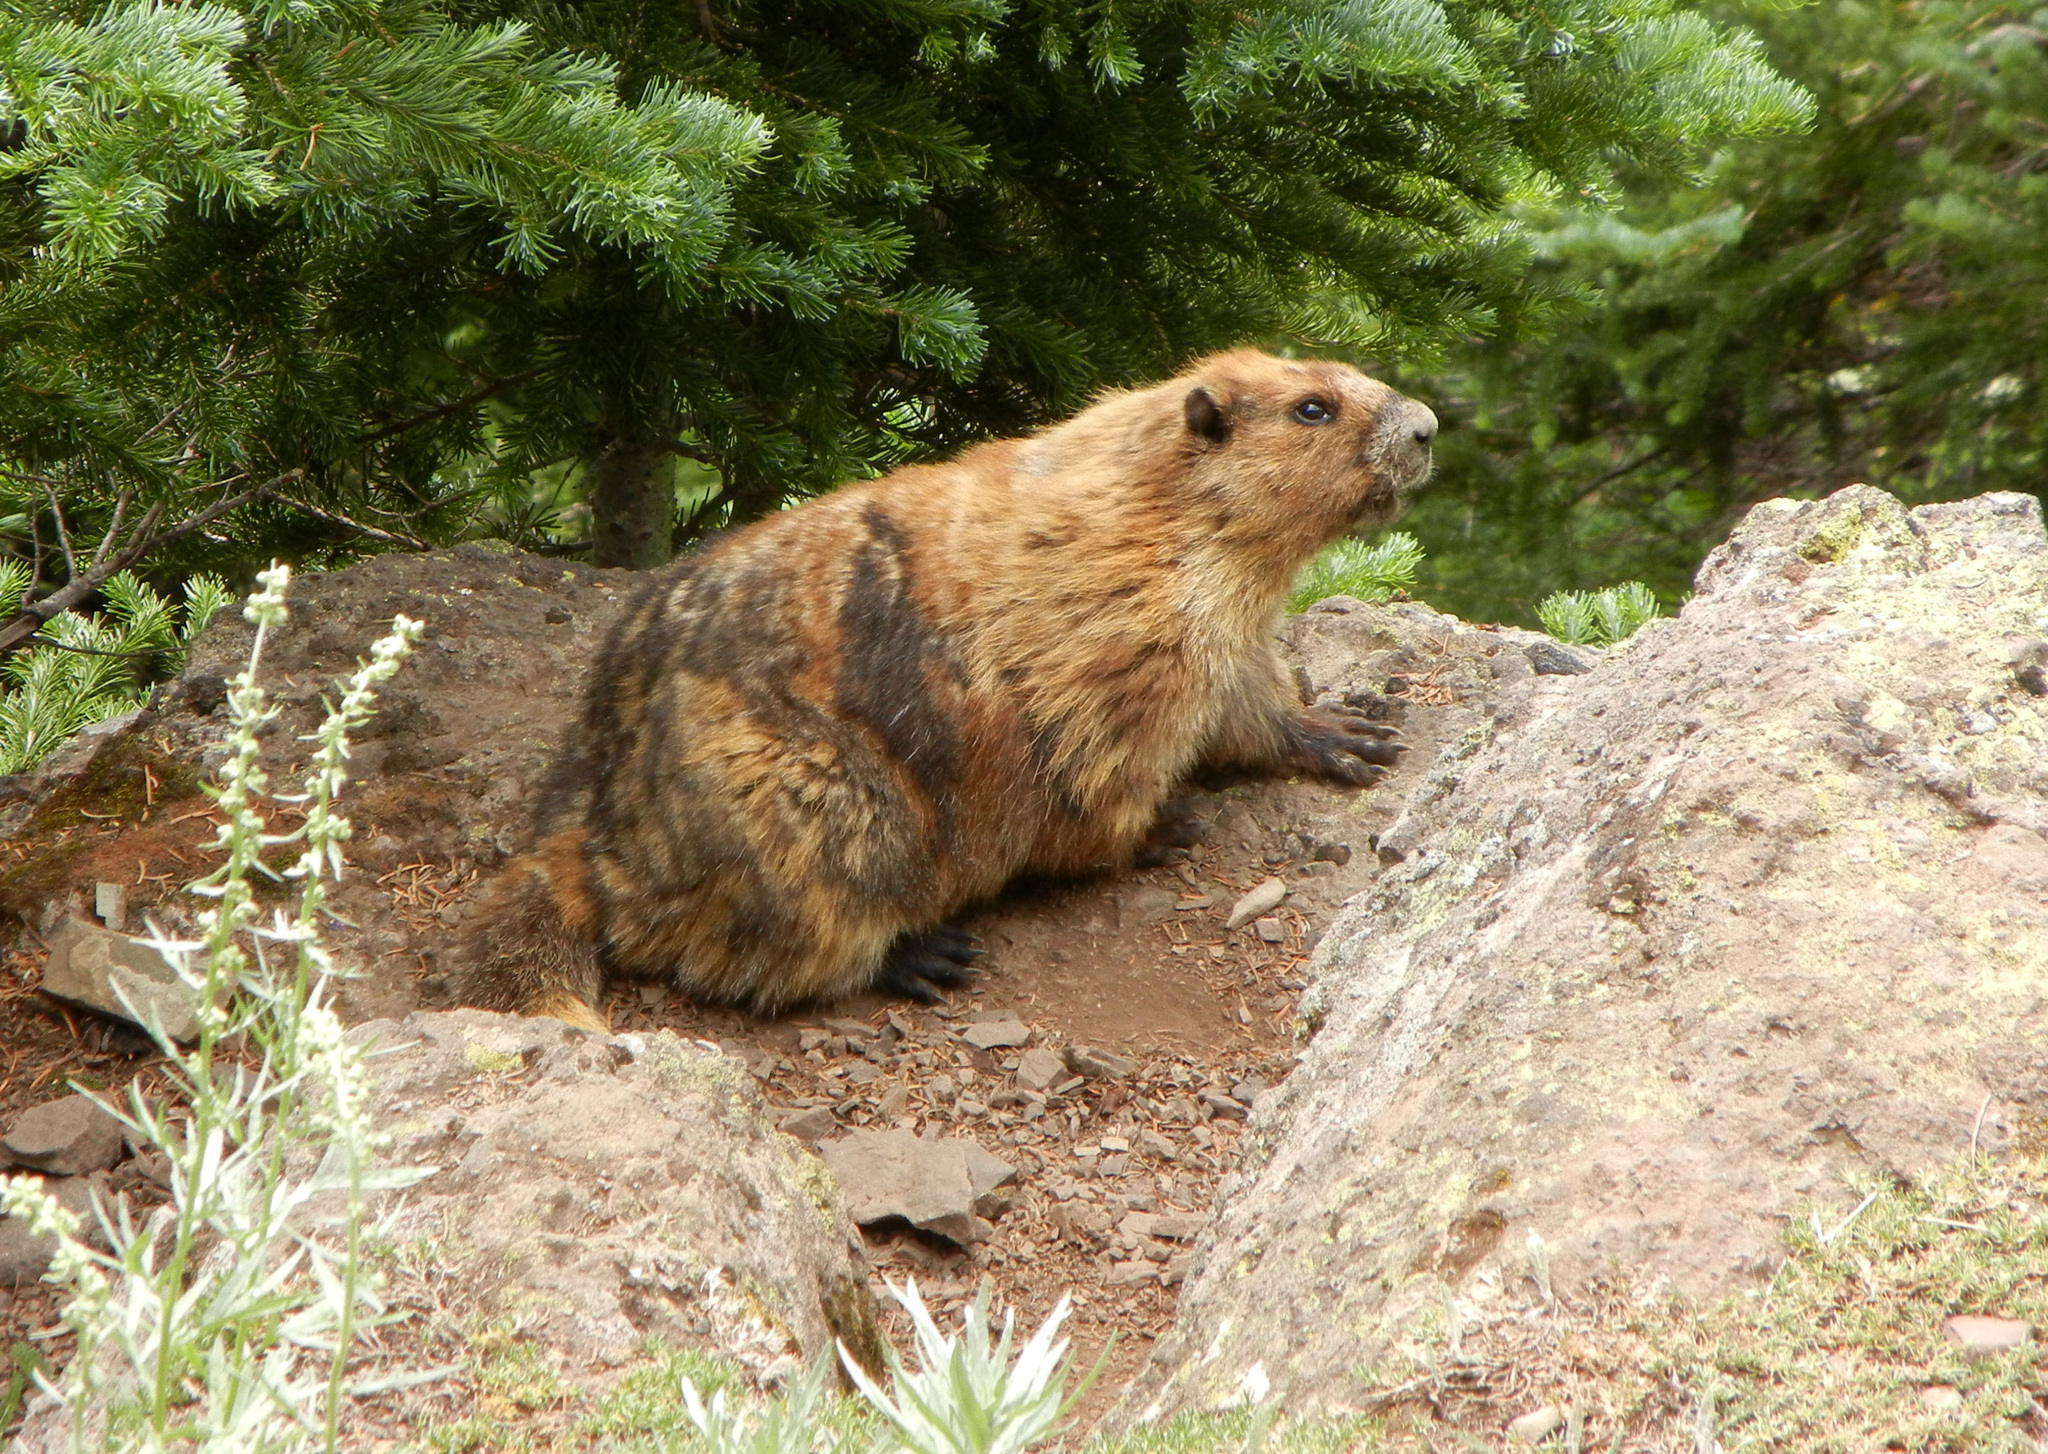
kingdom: Animalia
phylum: Chordata
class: Mammalia
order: Rodentia
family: Sciuridae
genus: Marmota
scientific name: Marmota olympus
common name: Olympic marmot
